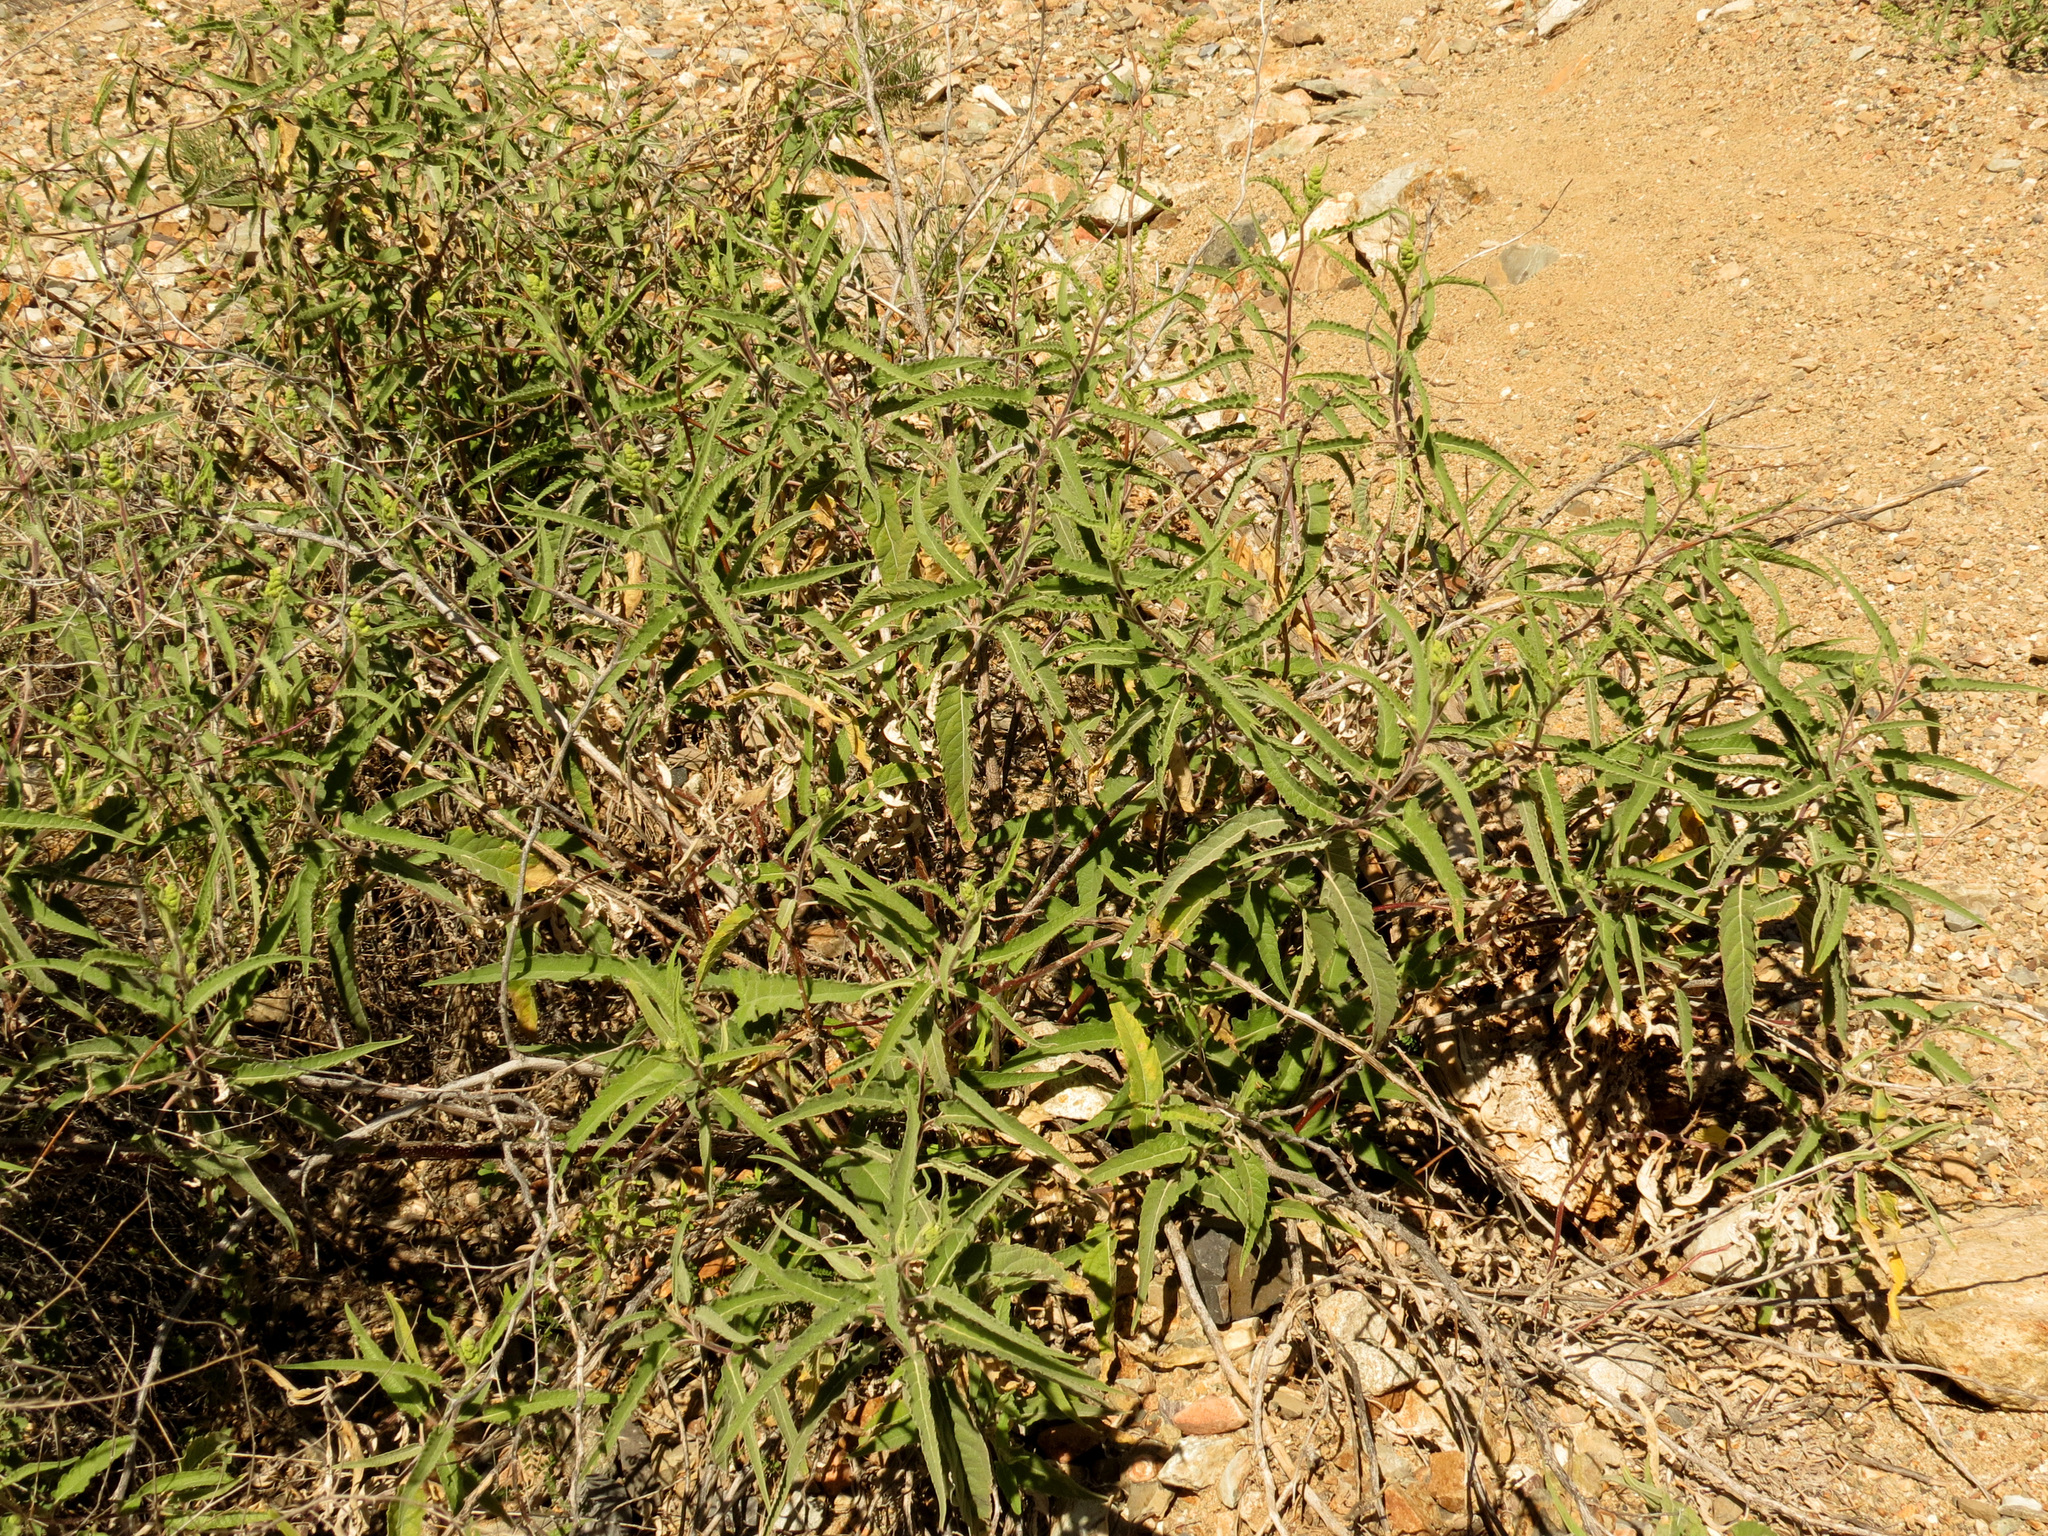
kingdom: Plantae
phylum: Tracheophyta
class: Magnoliopsida
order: Asterales
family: Asteraceae
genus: Ambrosia
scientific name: Ambrosia ambrosioides
